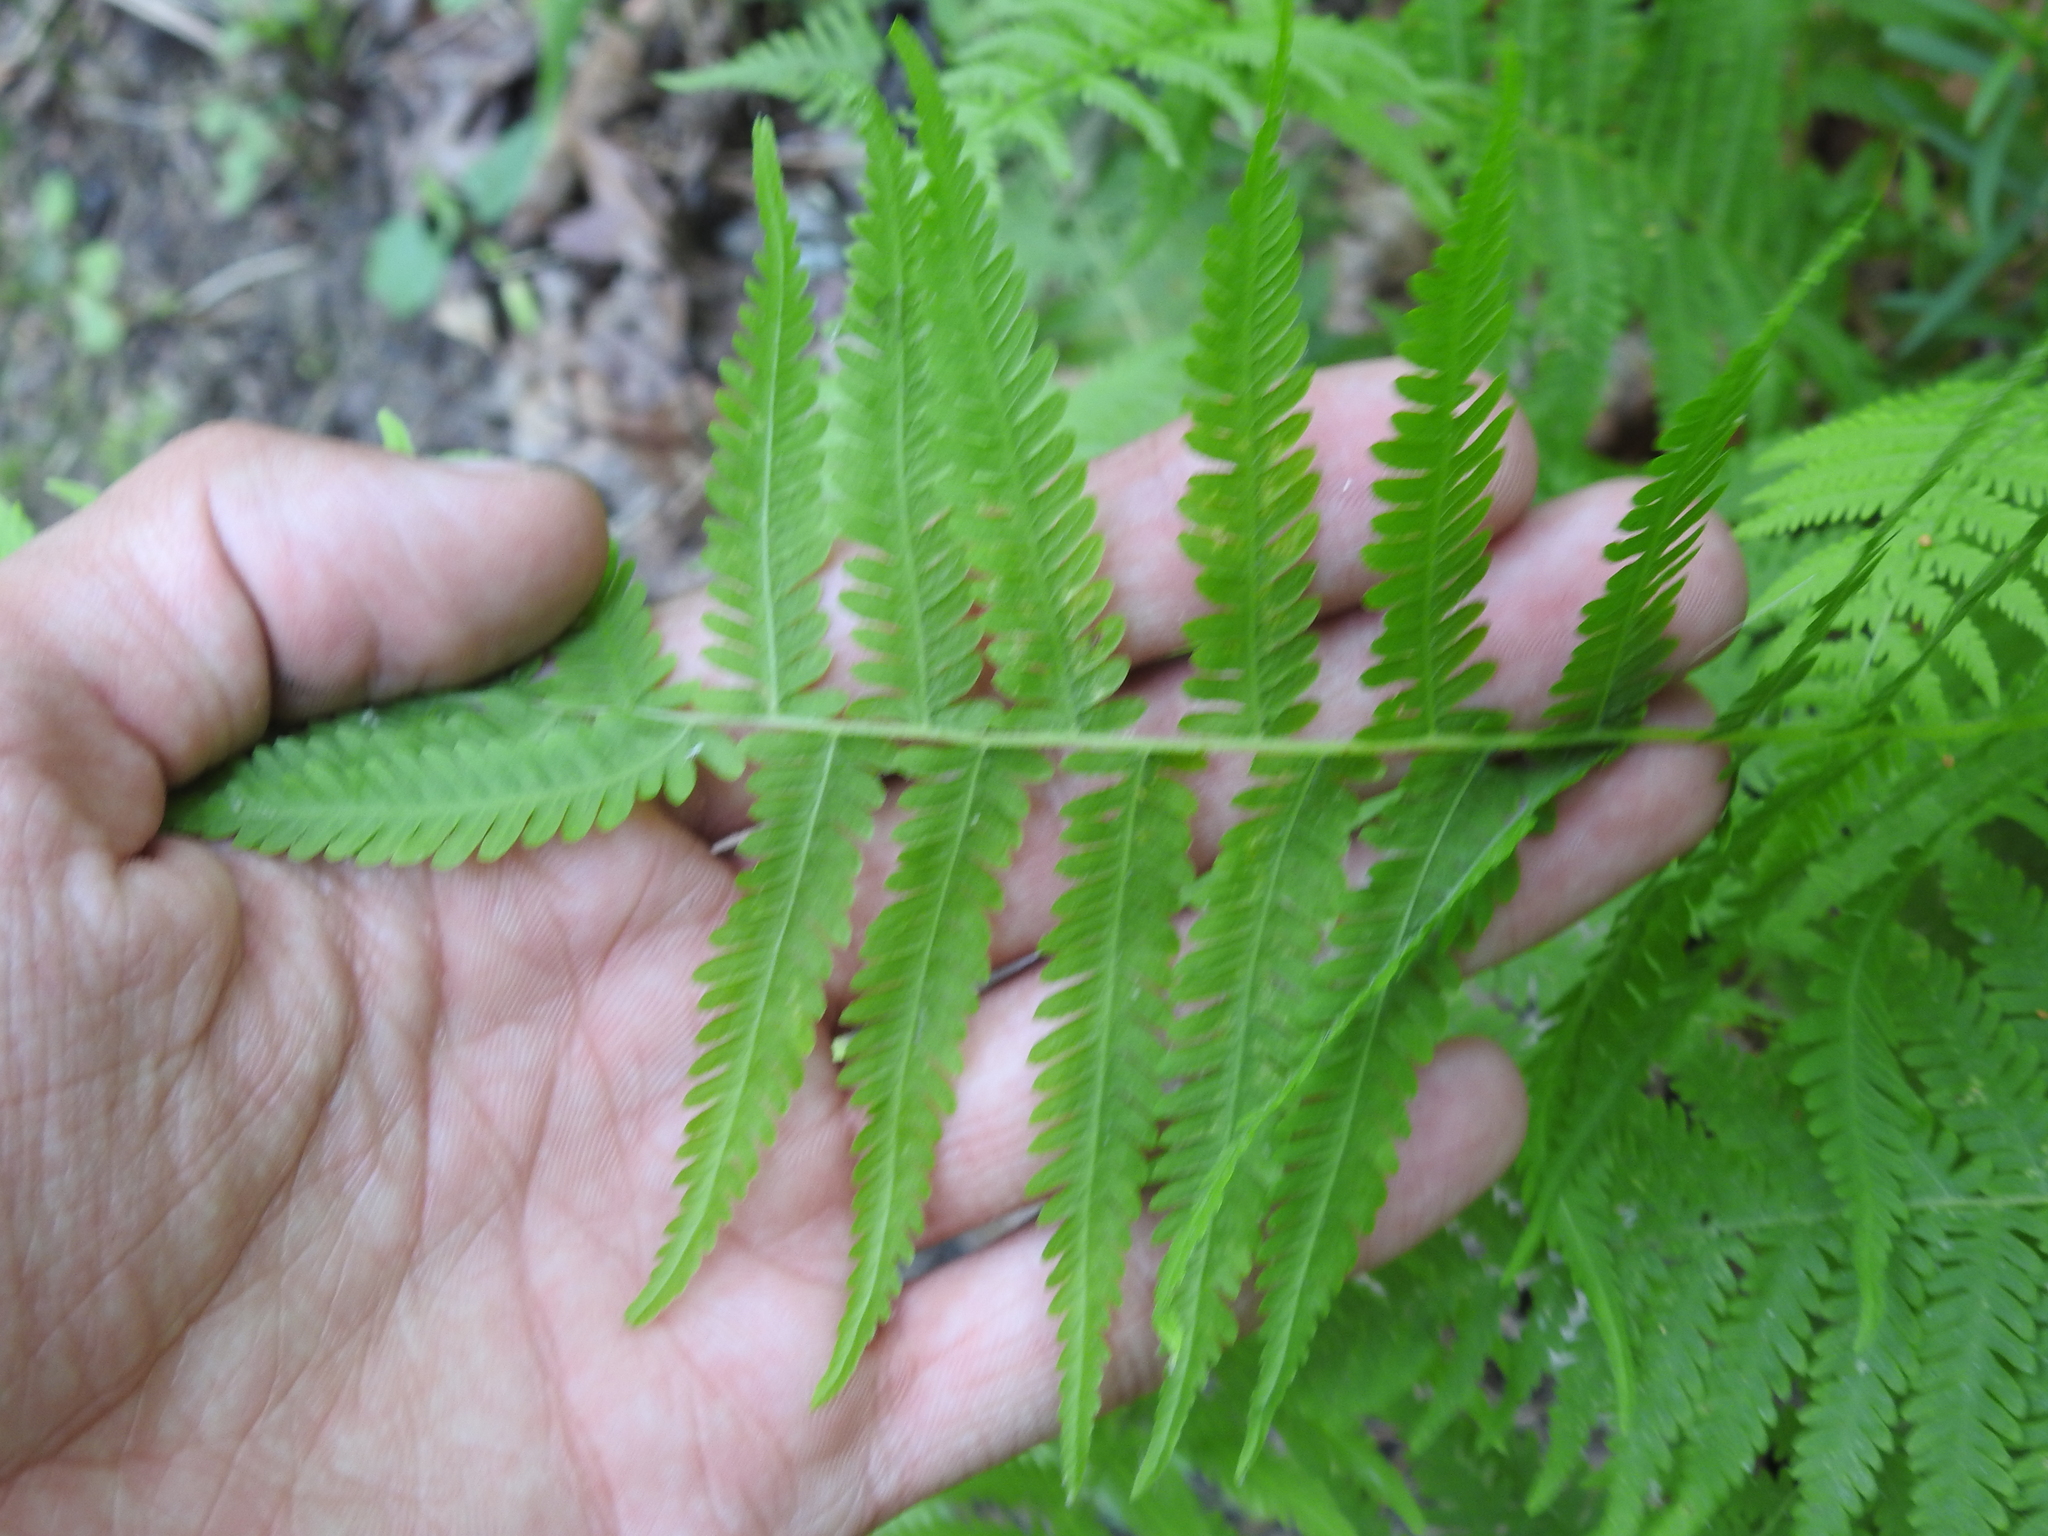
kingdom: Plantae
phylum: Tracheophyta
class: Polypodiopsida
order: Polypodiales
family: Thelypteridaceae
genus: Amauropelta
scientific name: Amauropelta noveboracensis
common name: New york fern
